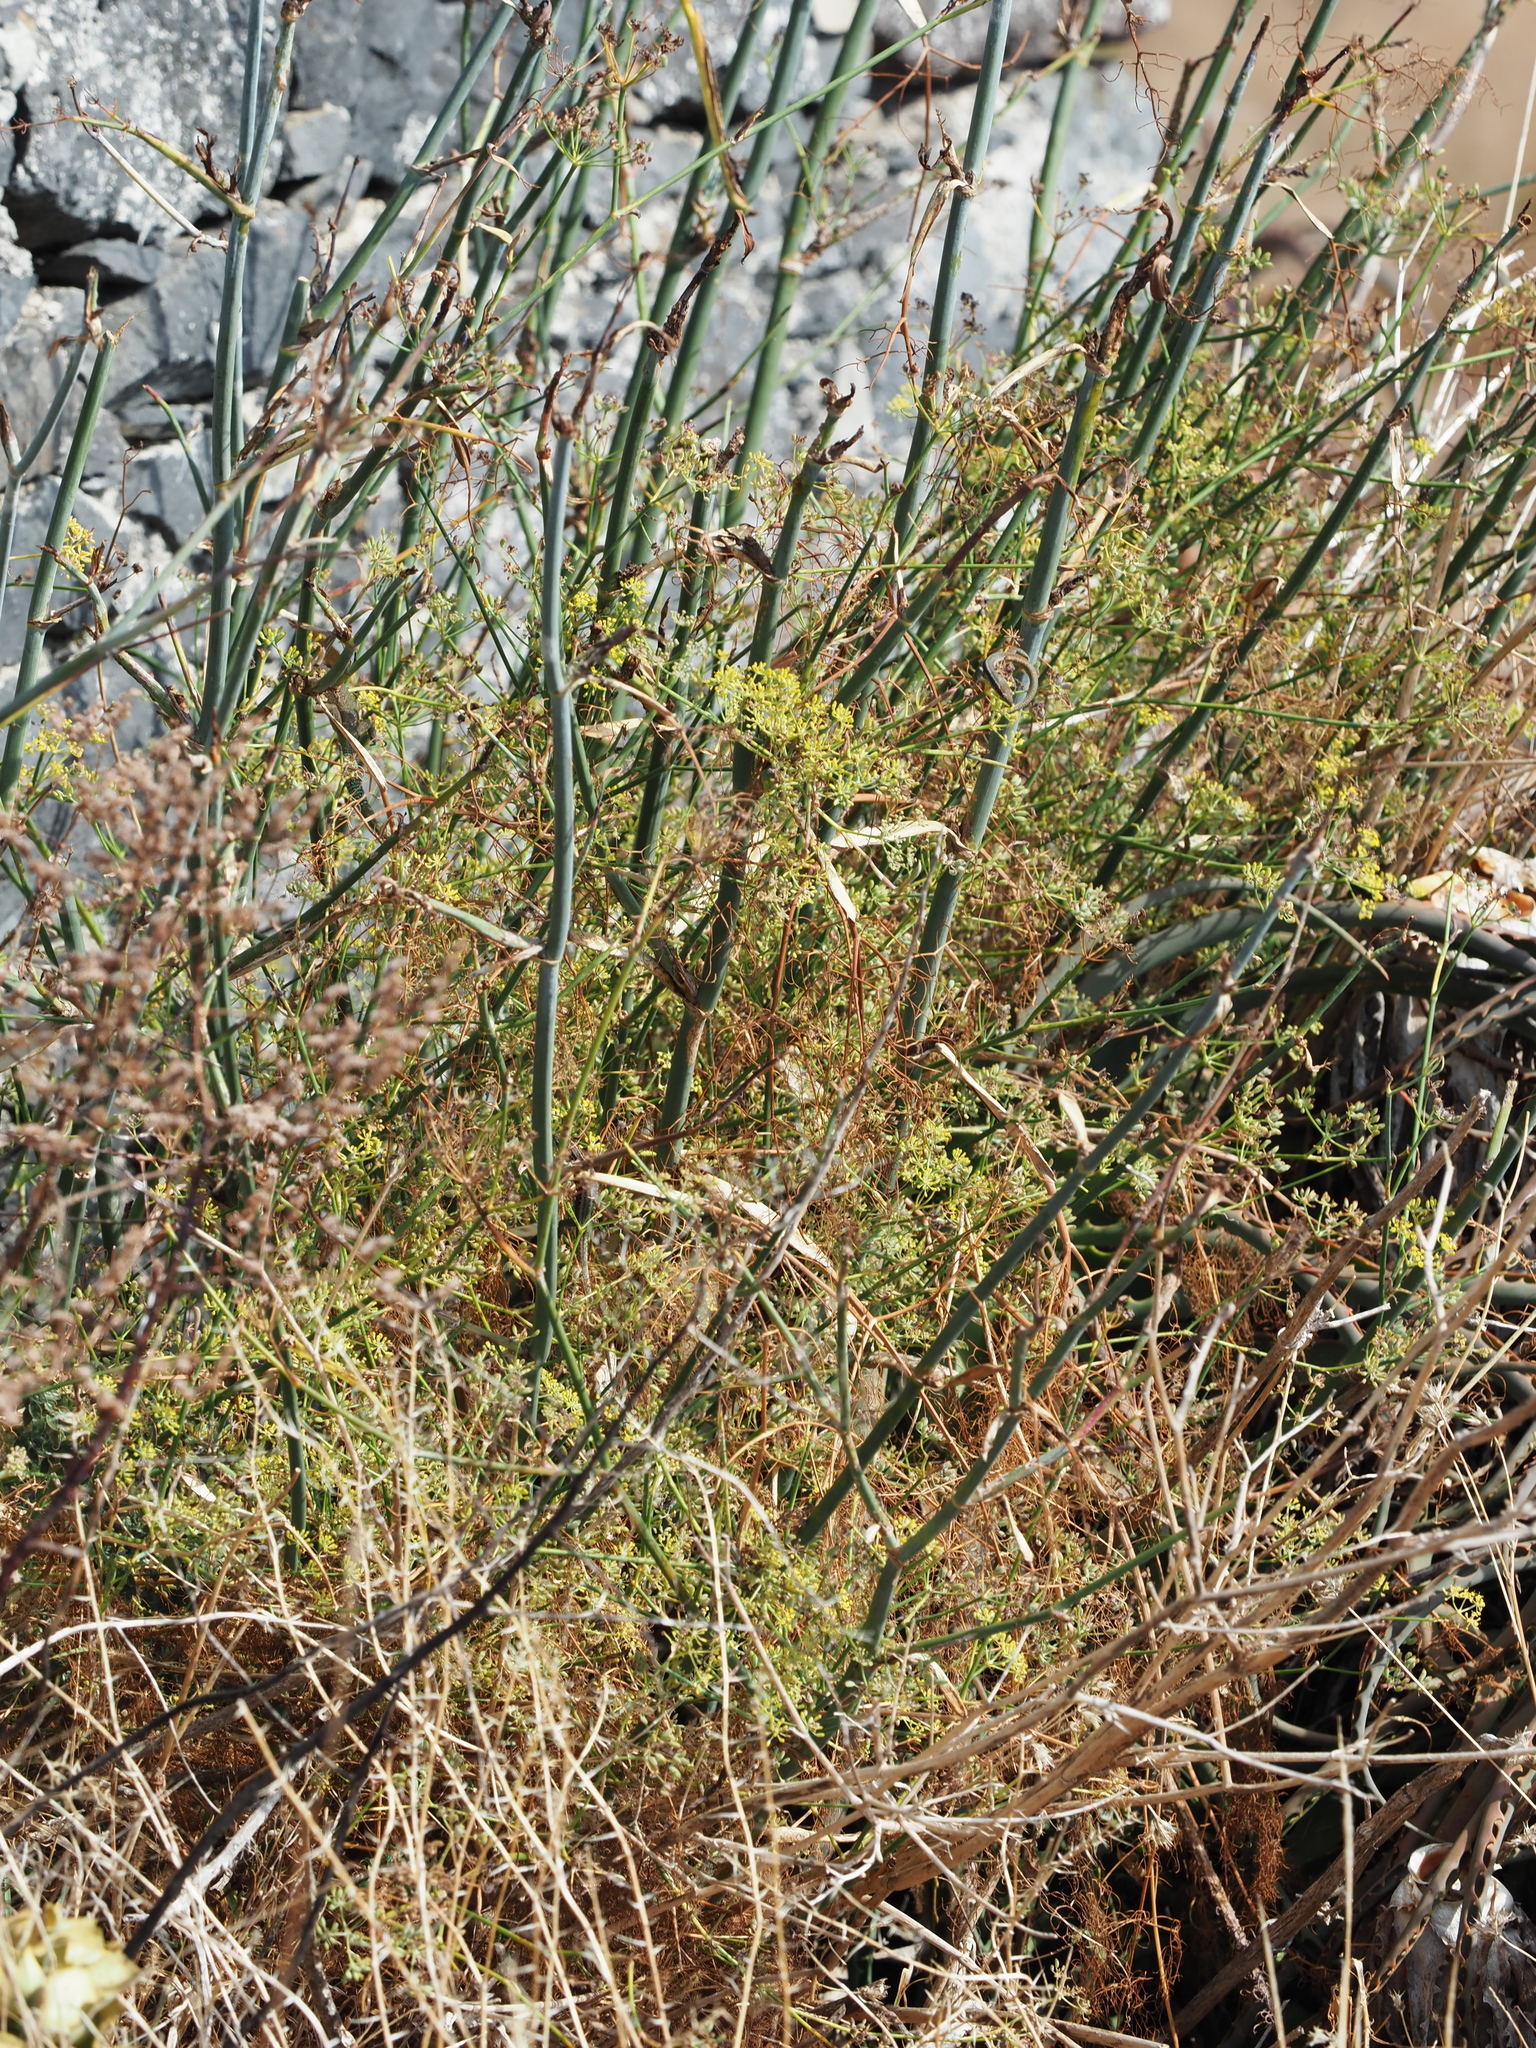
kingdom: Plantae
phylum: Tracheophyta
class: Magnoliopsida
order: Apiales
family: Apiaceae
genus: Foeniculum
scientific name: Foeniculum vulgare
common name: Fennel
